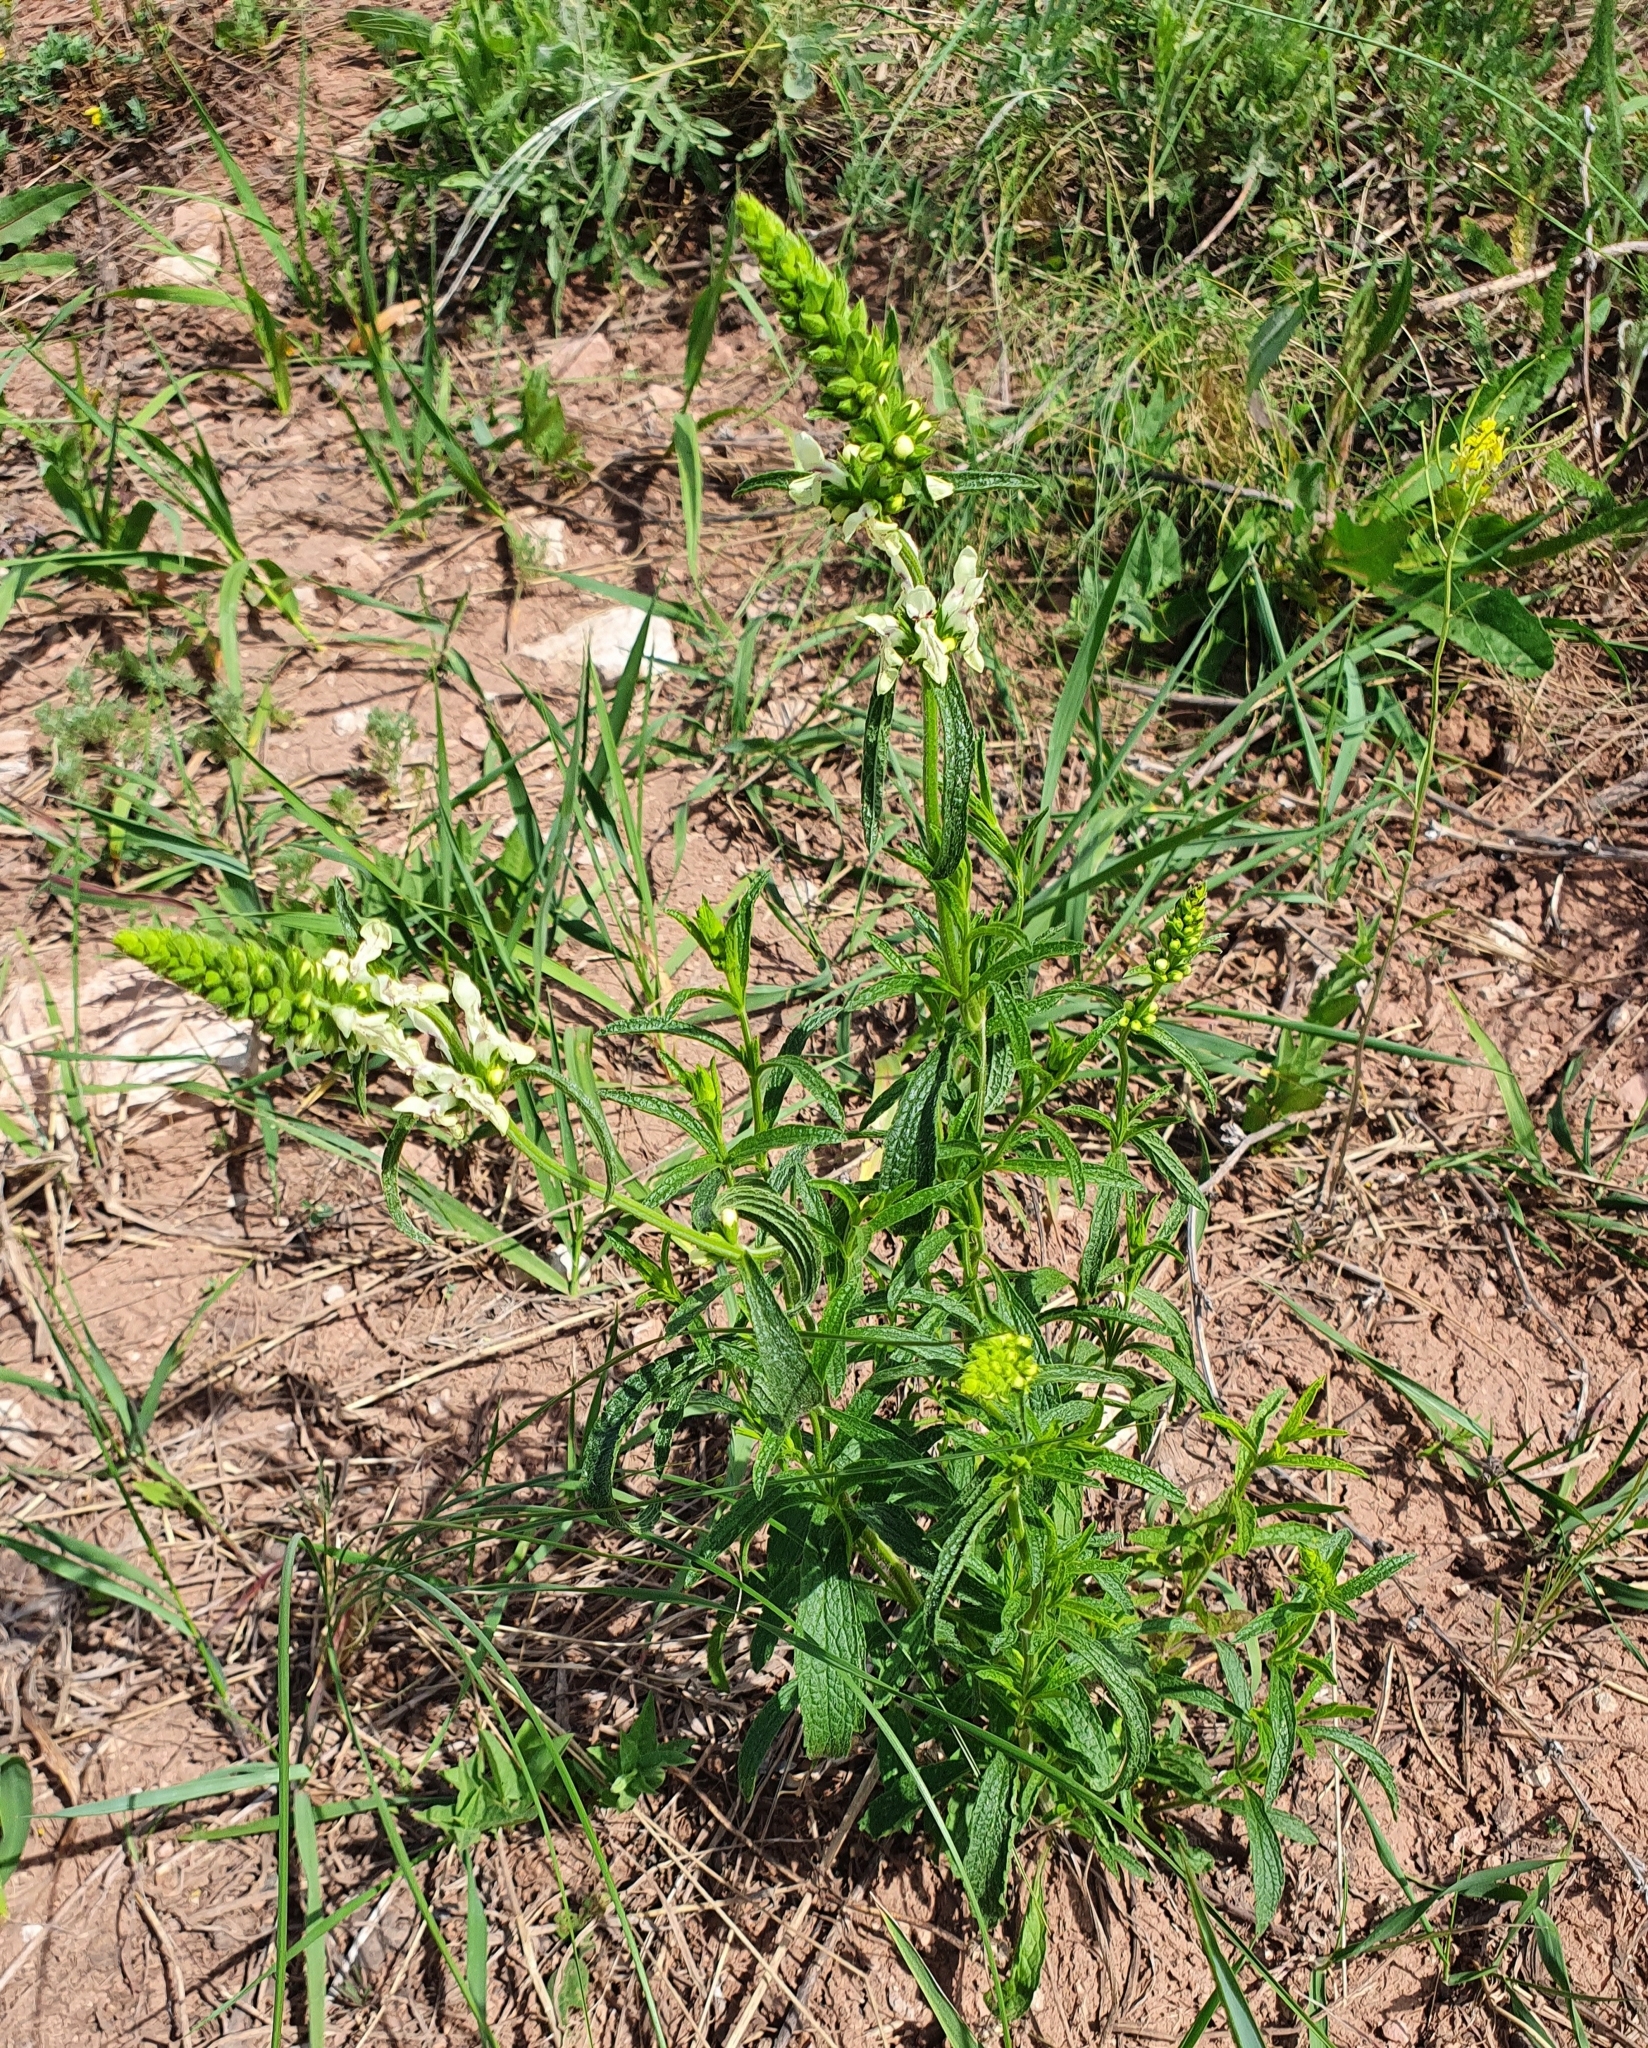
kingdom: Plantae
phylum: Tracheophyta
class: Magnoliopsida
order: Lamiales
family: Lamiaceae
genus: Stachys
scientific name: Stachys recta
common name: Perennial yellow-woundwort
